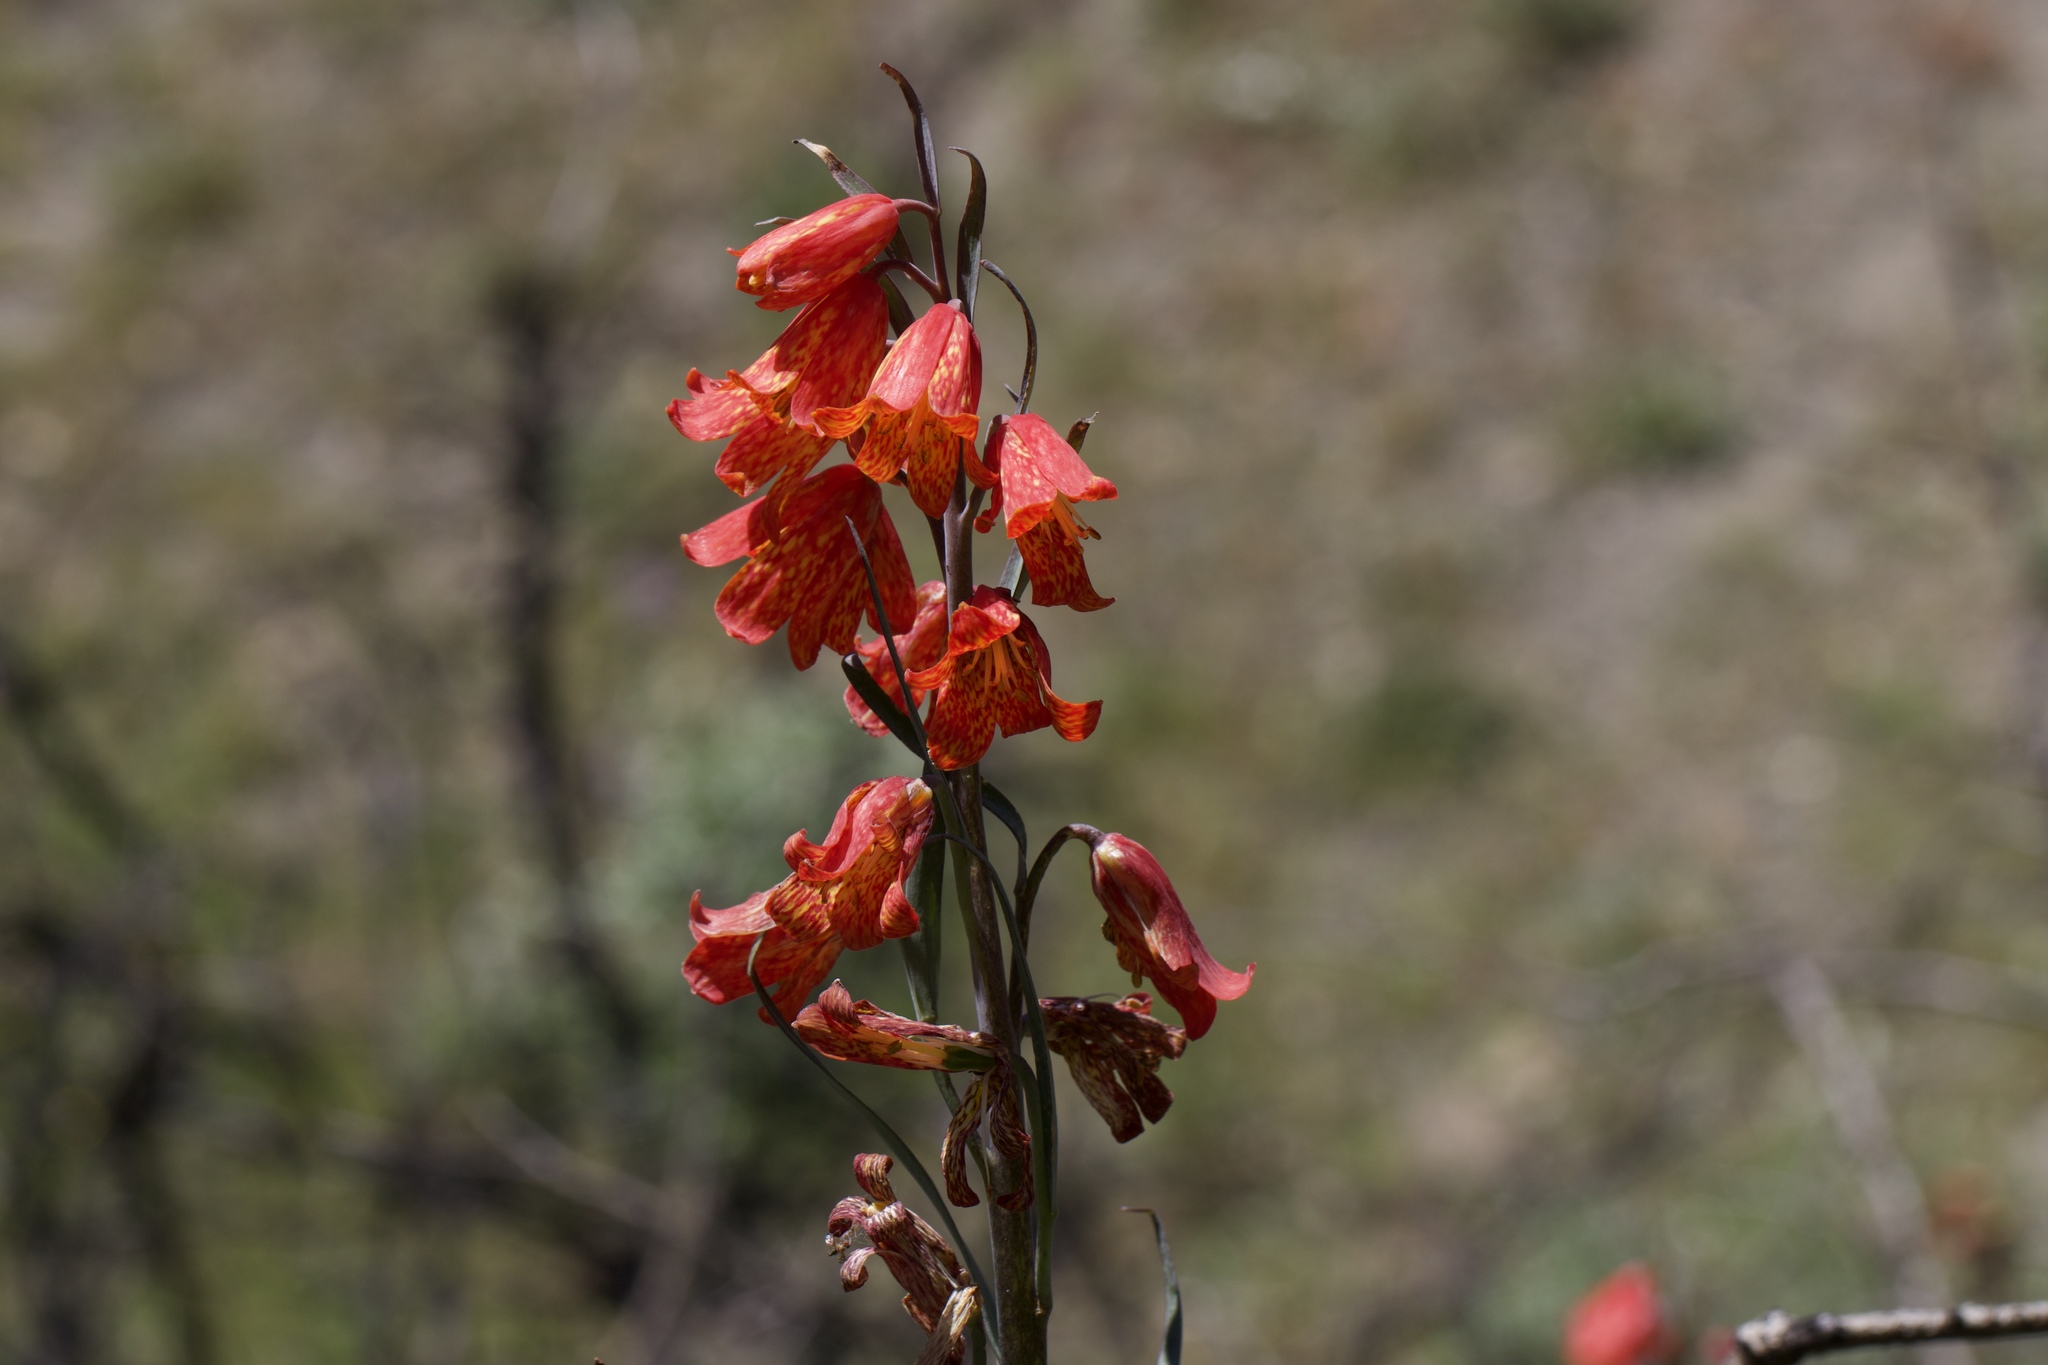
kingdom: Plantae
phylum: Tracheophyta
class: Liliopsida
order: Liliales
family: Liliaceae
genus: Fritillaria
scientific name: Fritillaria recurva
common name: Scarlet fritillary
